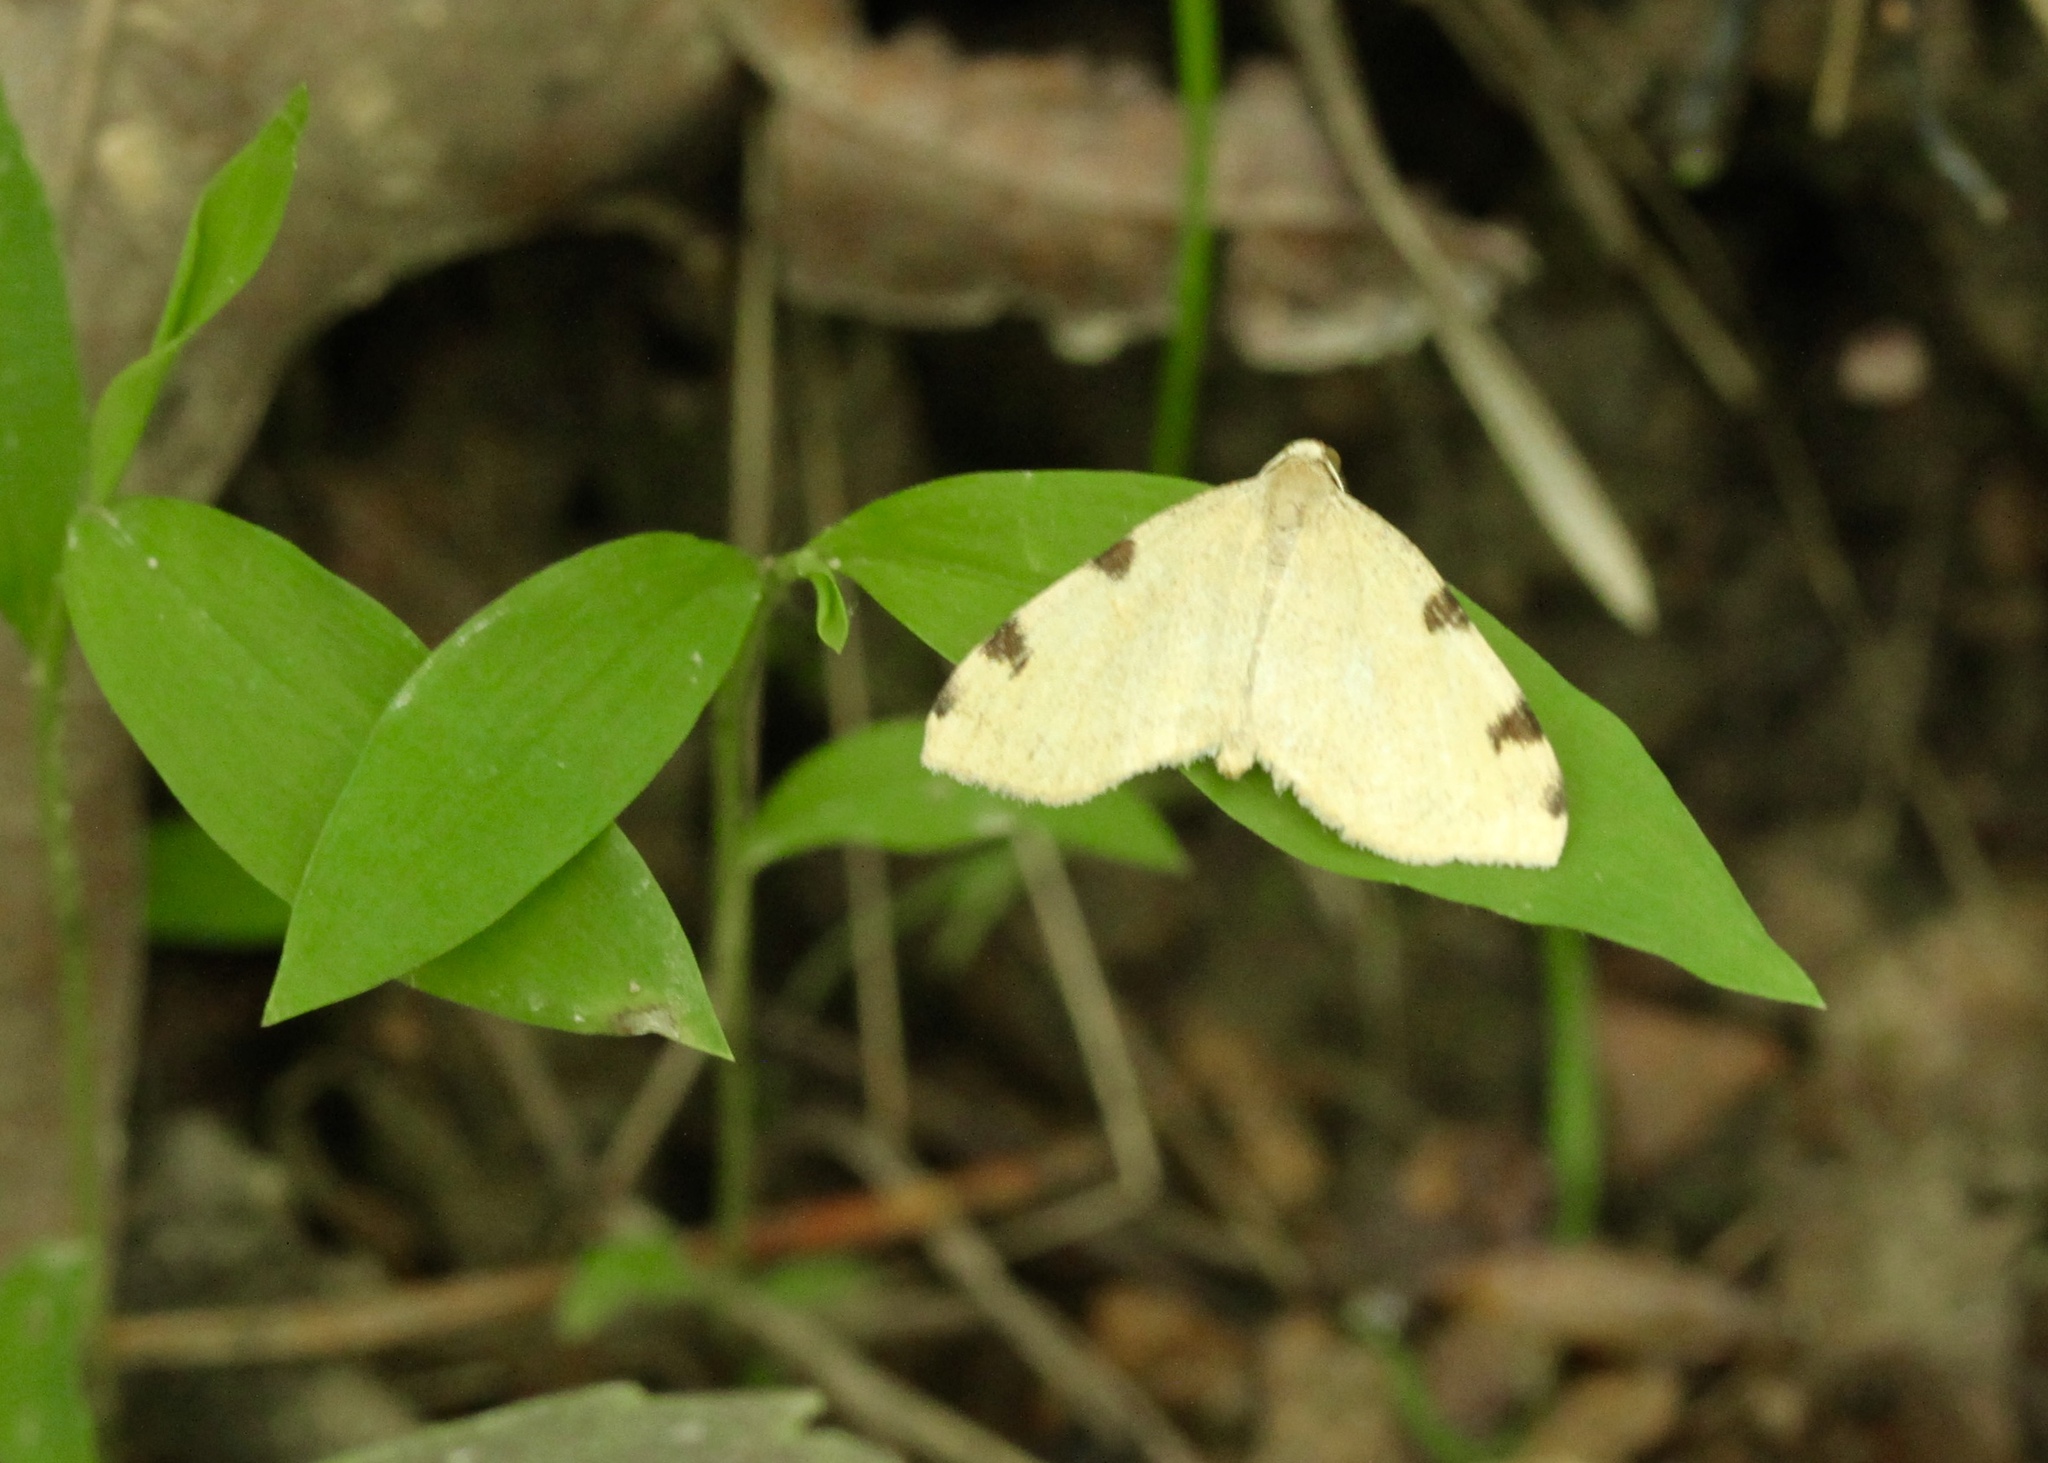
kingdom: Animalia
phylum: Arthropoda
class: Insecta
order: Lepidoptera
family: Geometridae
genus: Heterophleps
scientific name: Heterophleps triguttaria
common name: Three-spotted fillip
